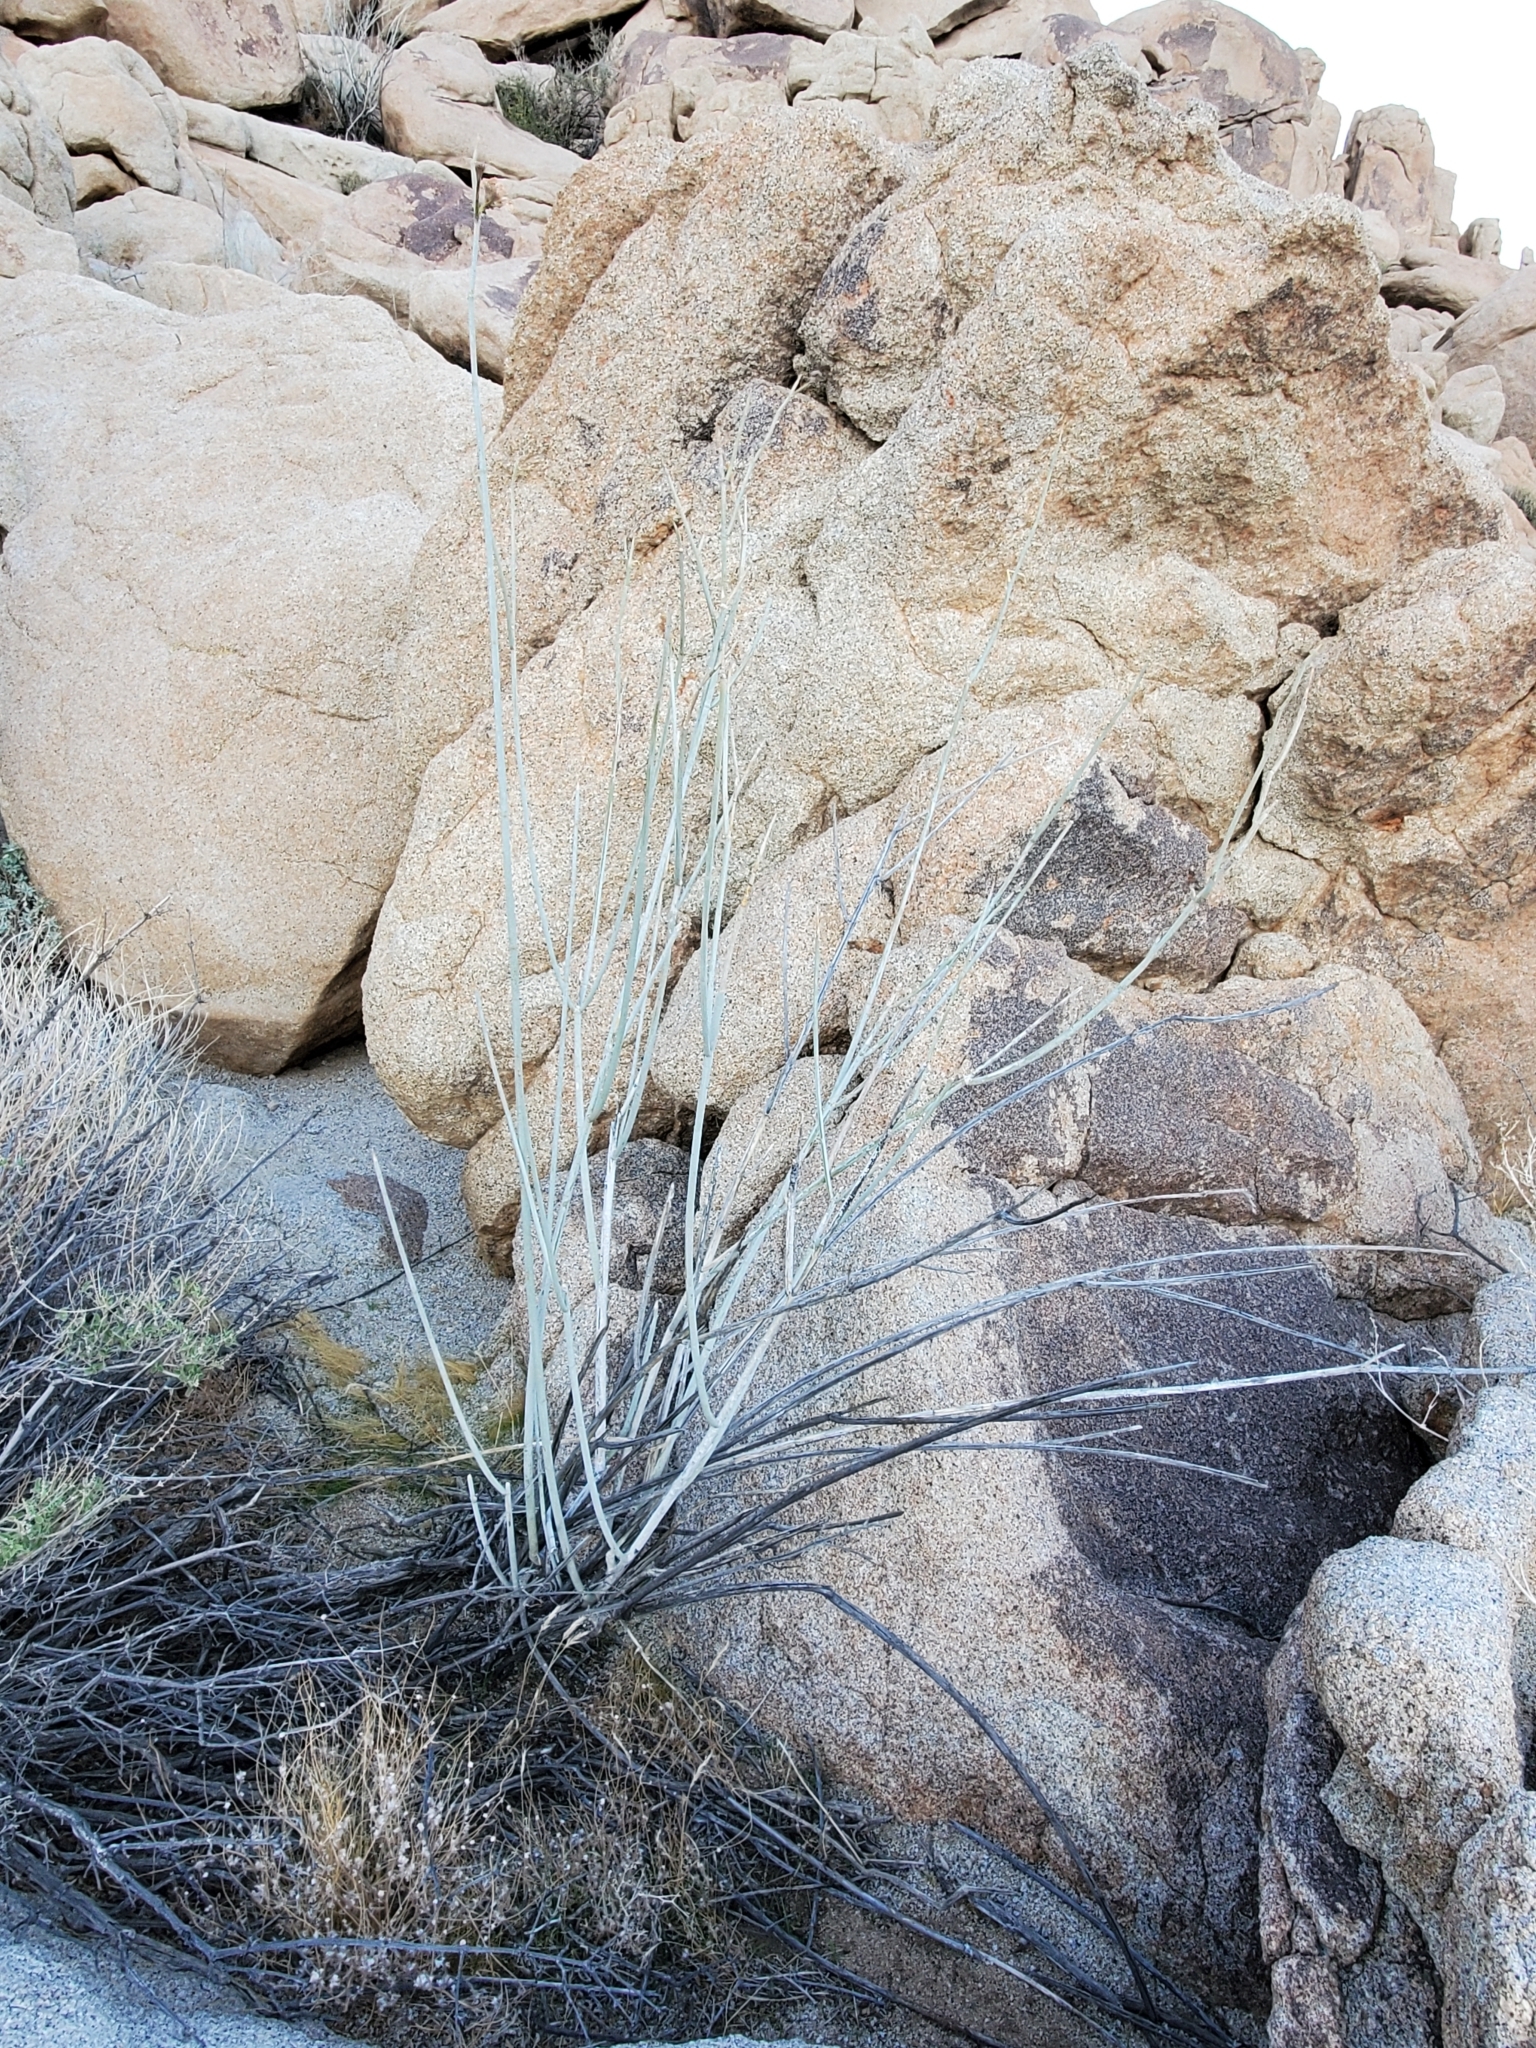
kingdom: Plantae
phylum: Tracheophyta
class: Magnoliopsida
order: Gentianales
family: Apocynaceae
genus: Asclepias
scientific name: Asclepias albicans
